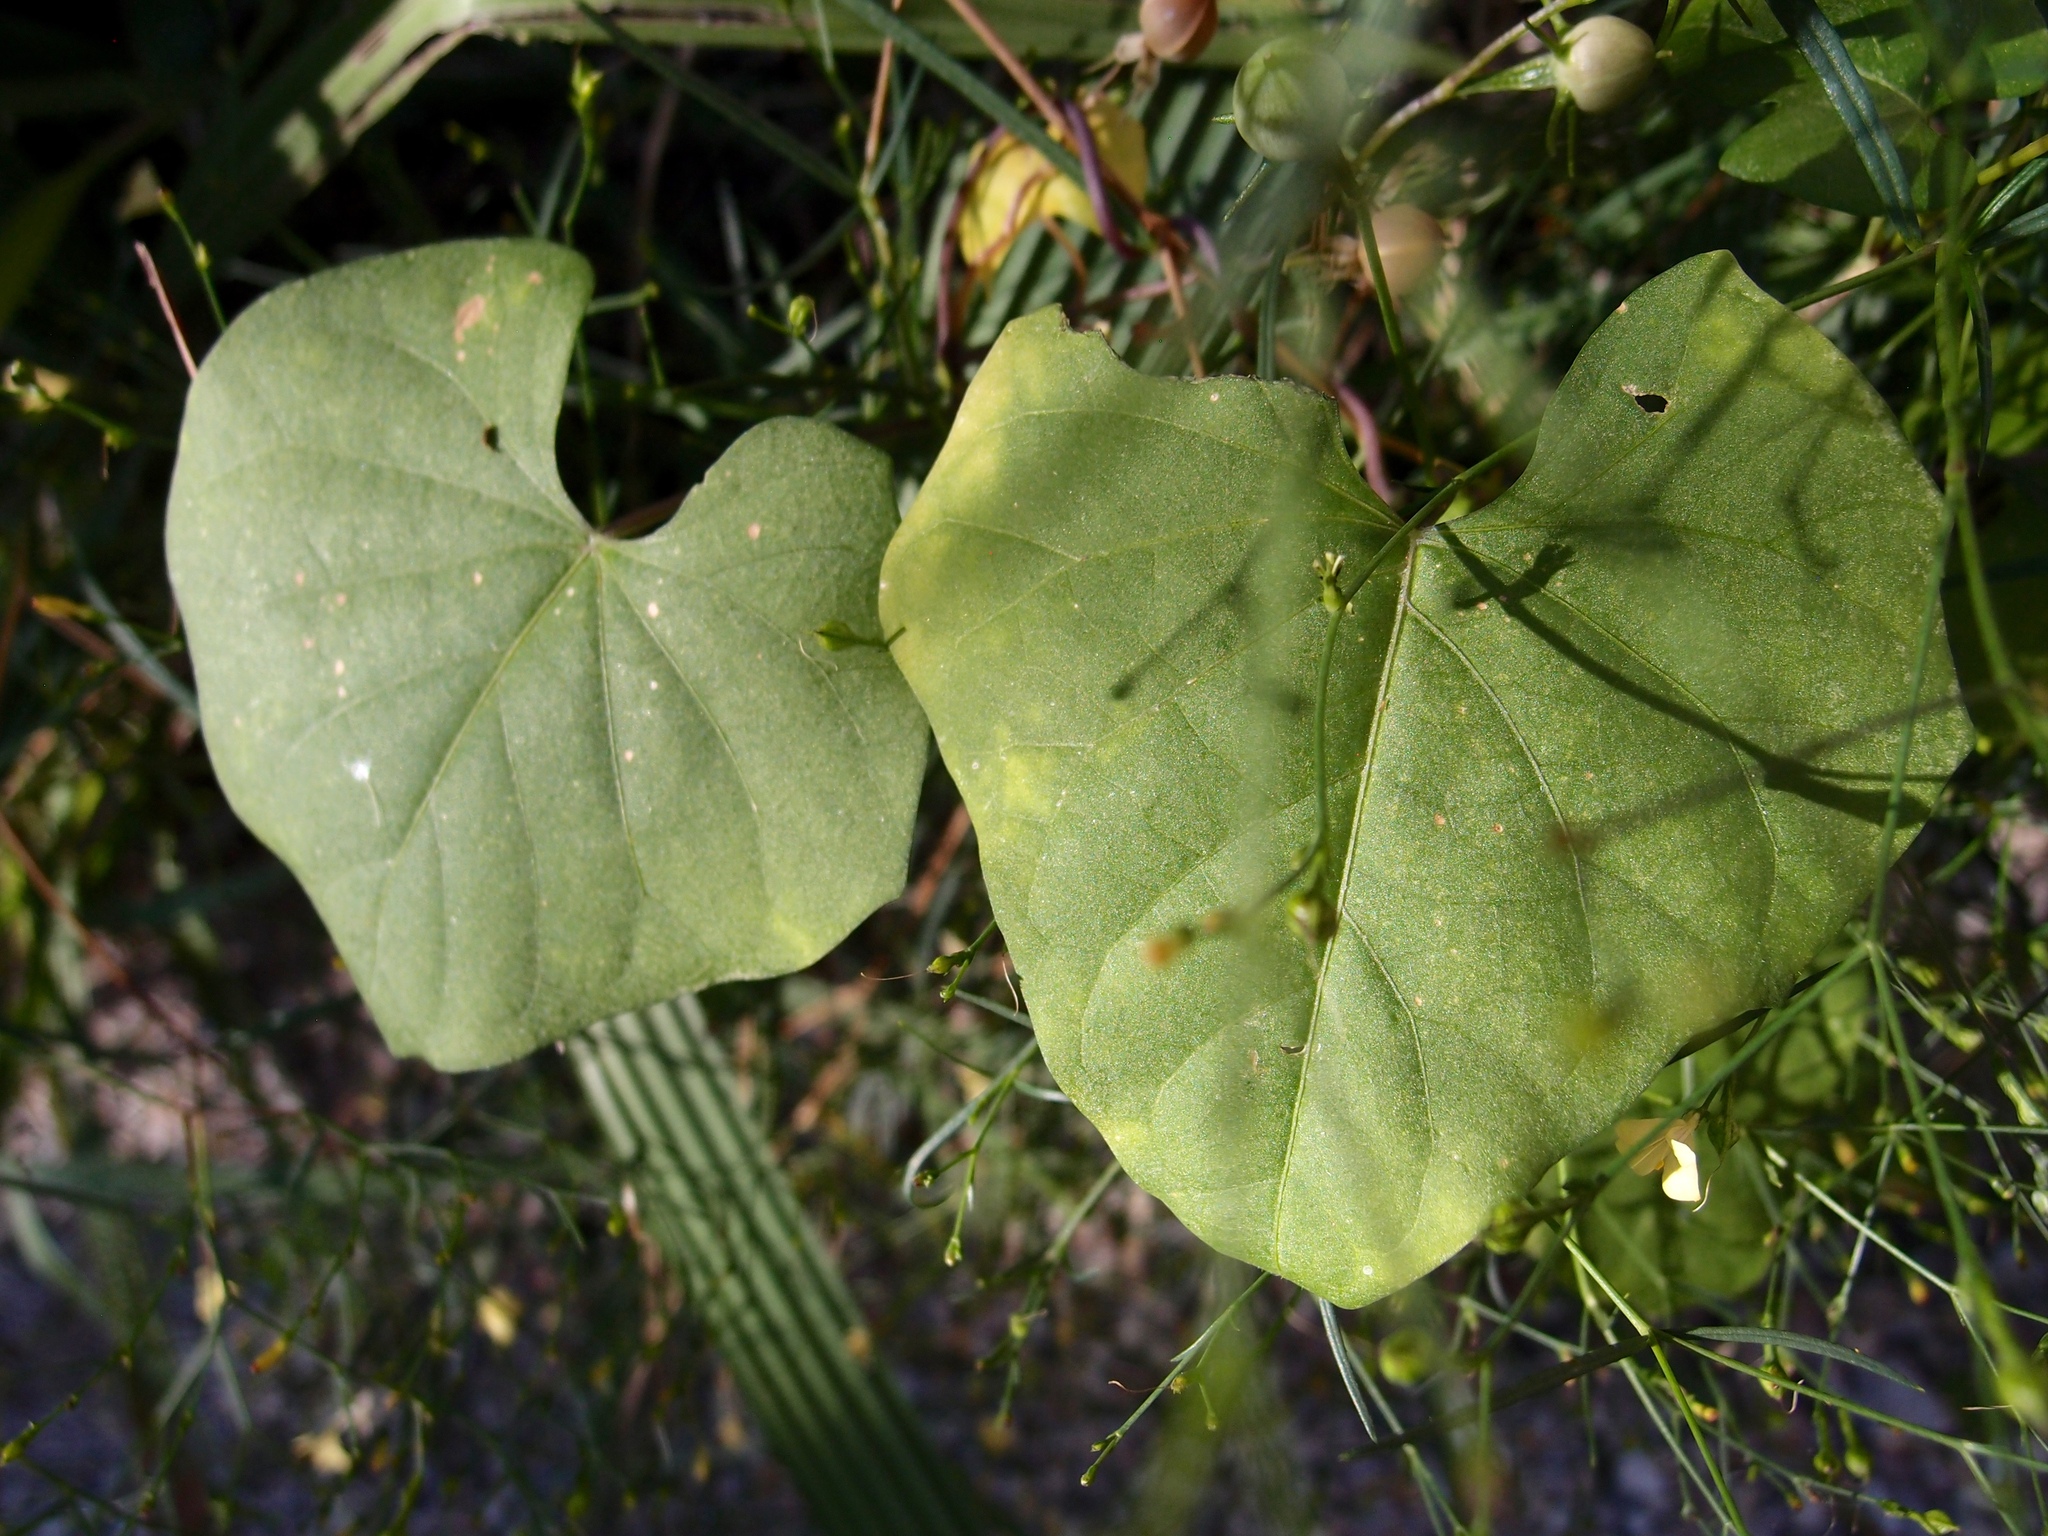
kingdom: Plantae
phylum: Tracheophyta
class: Magnoliopsida
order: Solanales
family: Convolvulaceae
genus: Ipomoea
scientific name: Ipomoea cristulata
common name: Trans-pecos morning-glory
